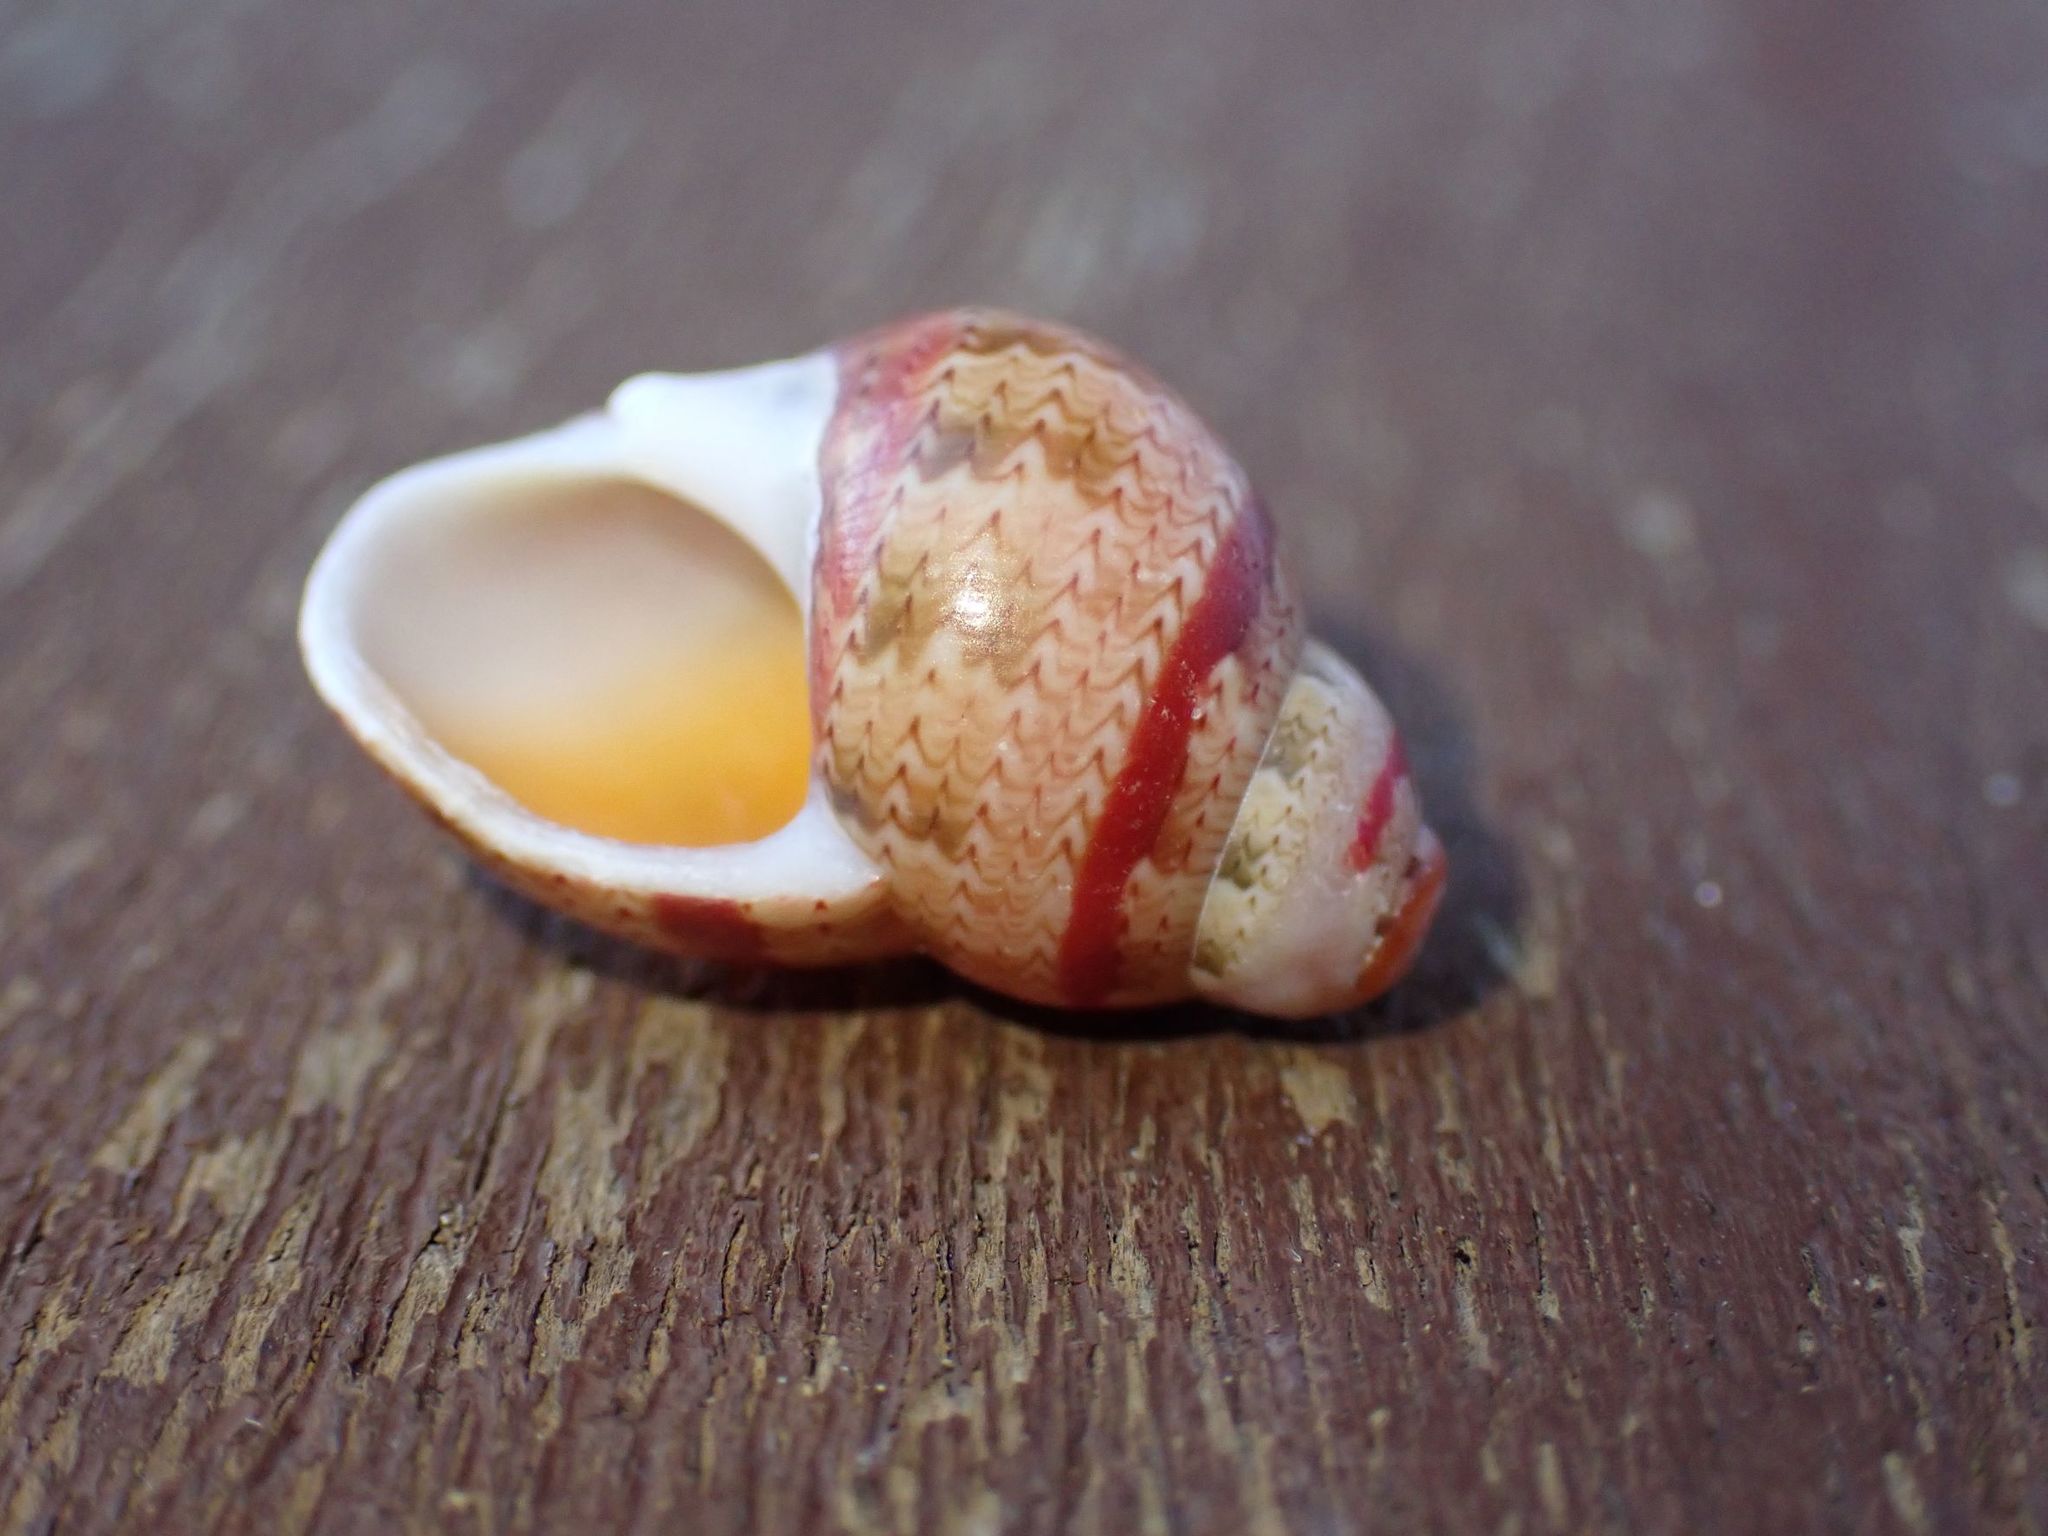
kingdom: Animalia
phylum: Mollusca
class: Gastropoda
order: Trochida
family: Phasianellidae
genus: Phasianella
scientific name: Phasianella ventricosa
